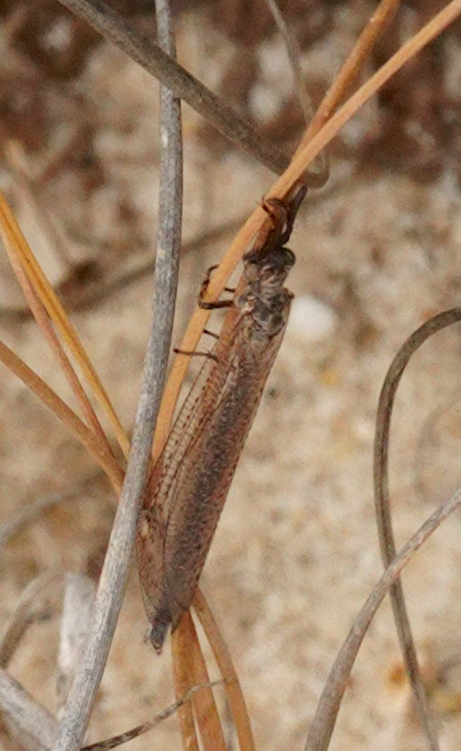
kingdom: Animalia
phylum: Arthropoda
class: Insecta
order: Neuroptera
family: Myrmeleontidae
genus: Creoleon
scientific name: Creoleon lugdunensis
